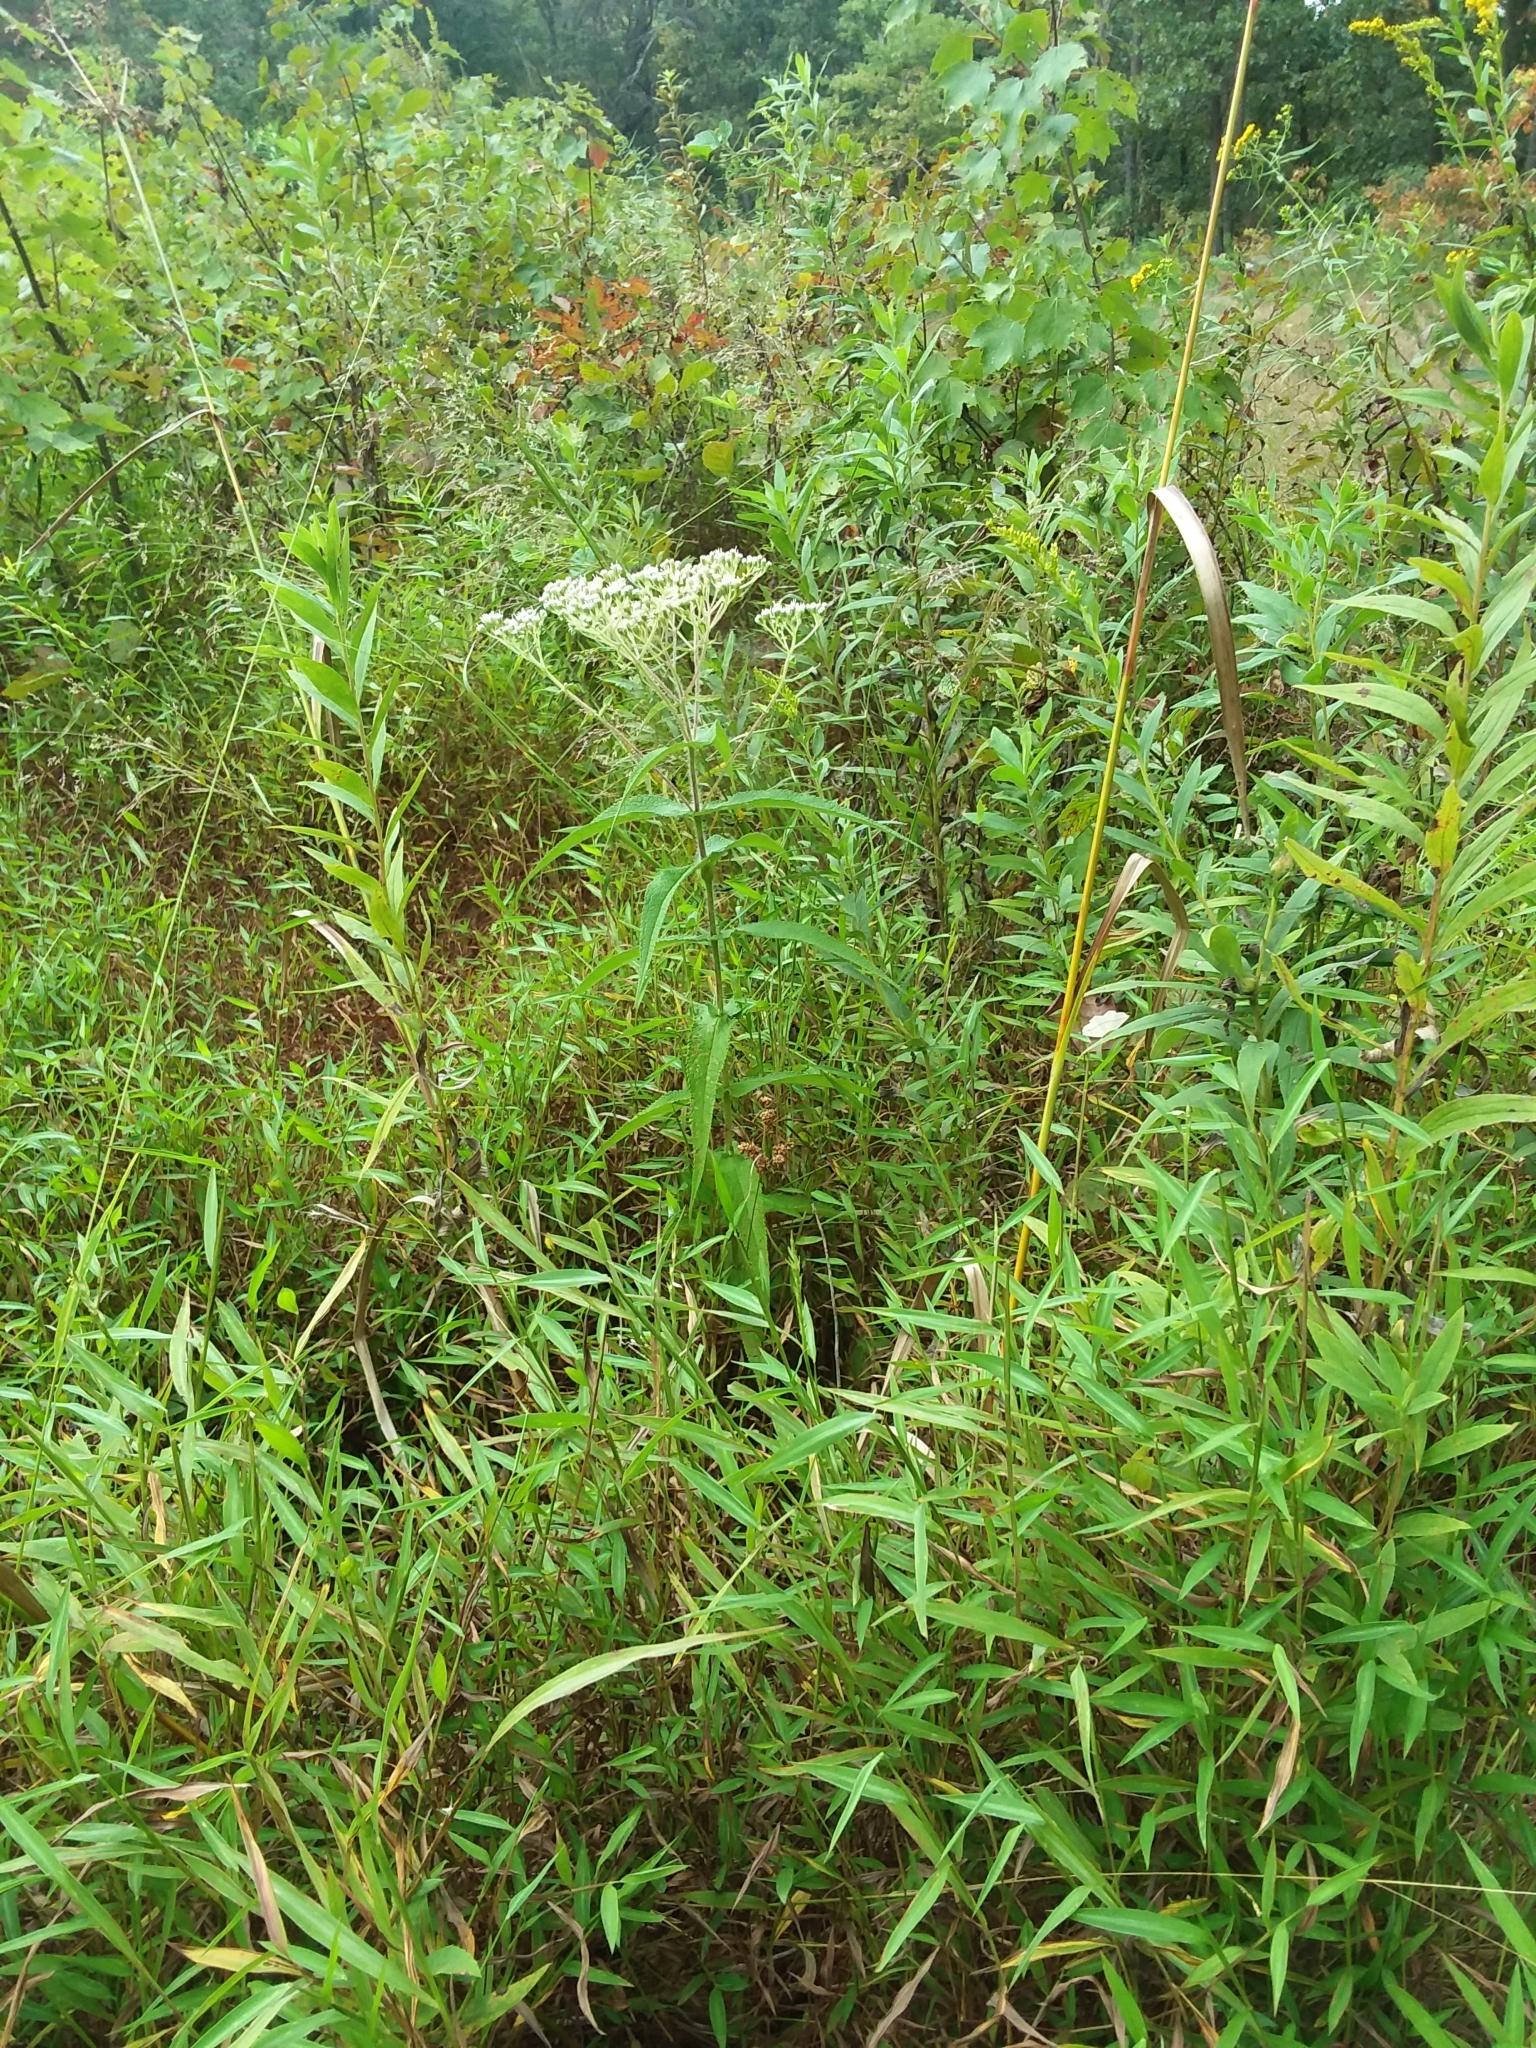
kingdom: Plantae
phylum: Tracheophyta
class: Magnoliopsida
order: Asterales
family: Asteraceae
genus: Eupatorium
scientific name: Eupatorium perfoliatum
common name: Boneset
